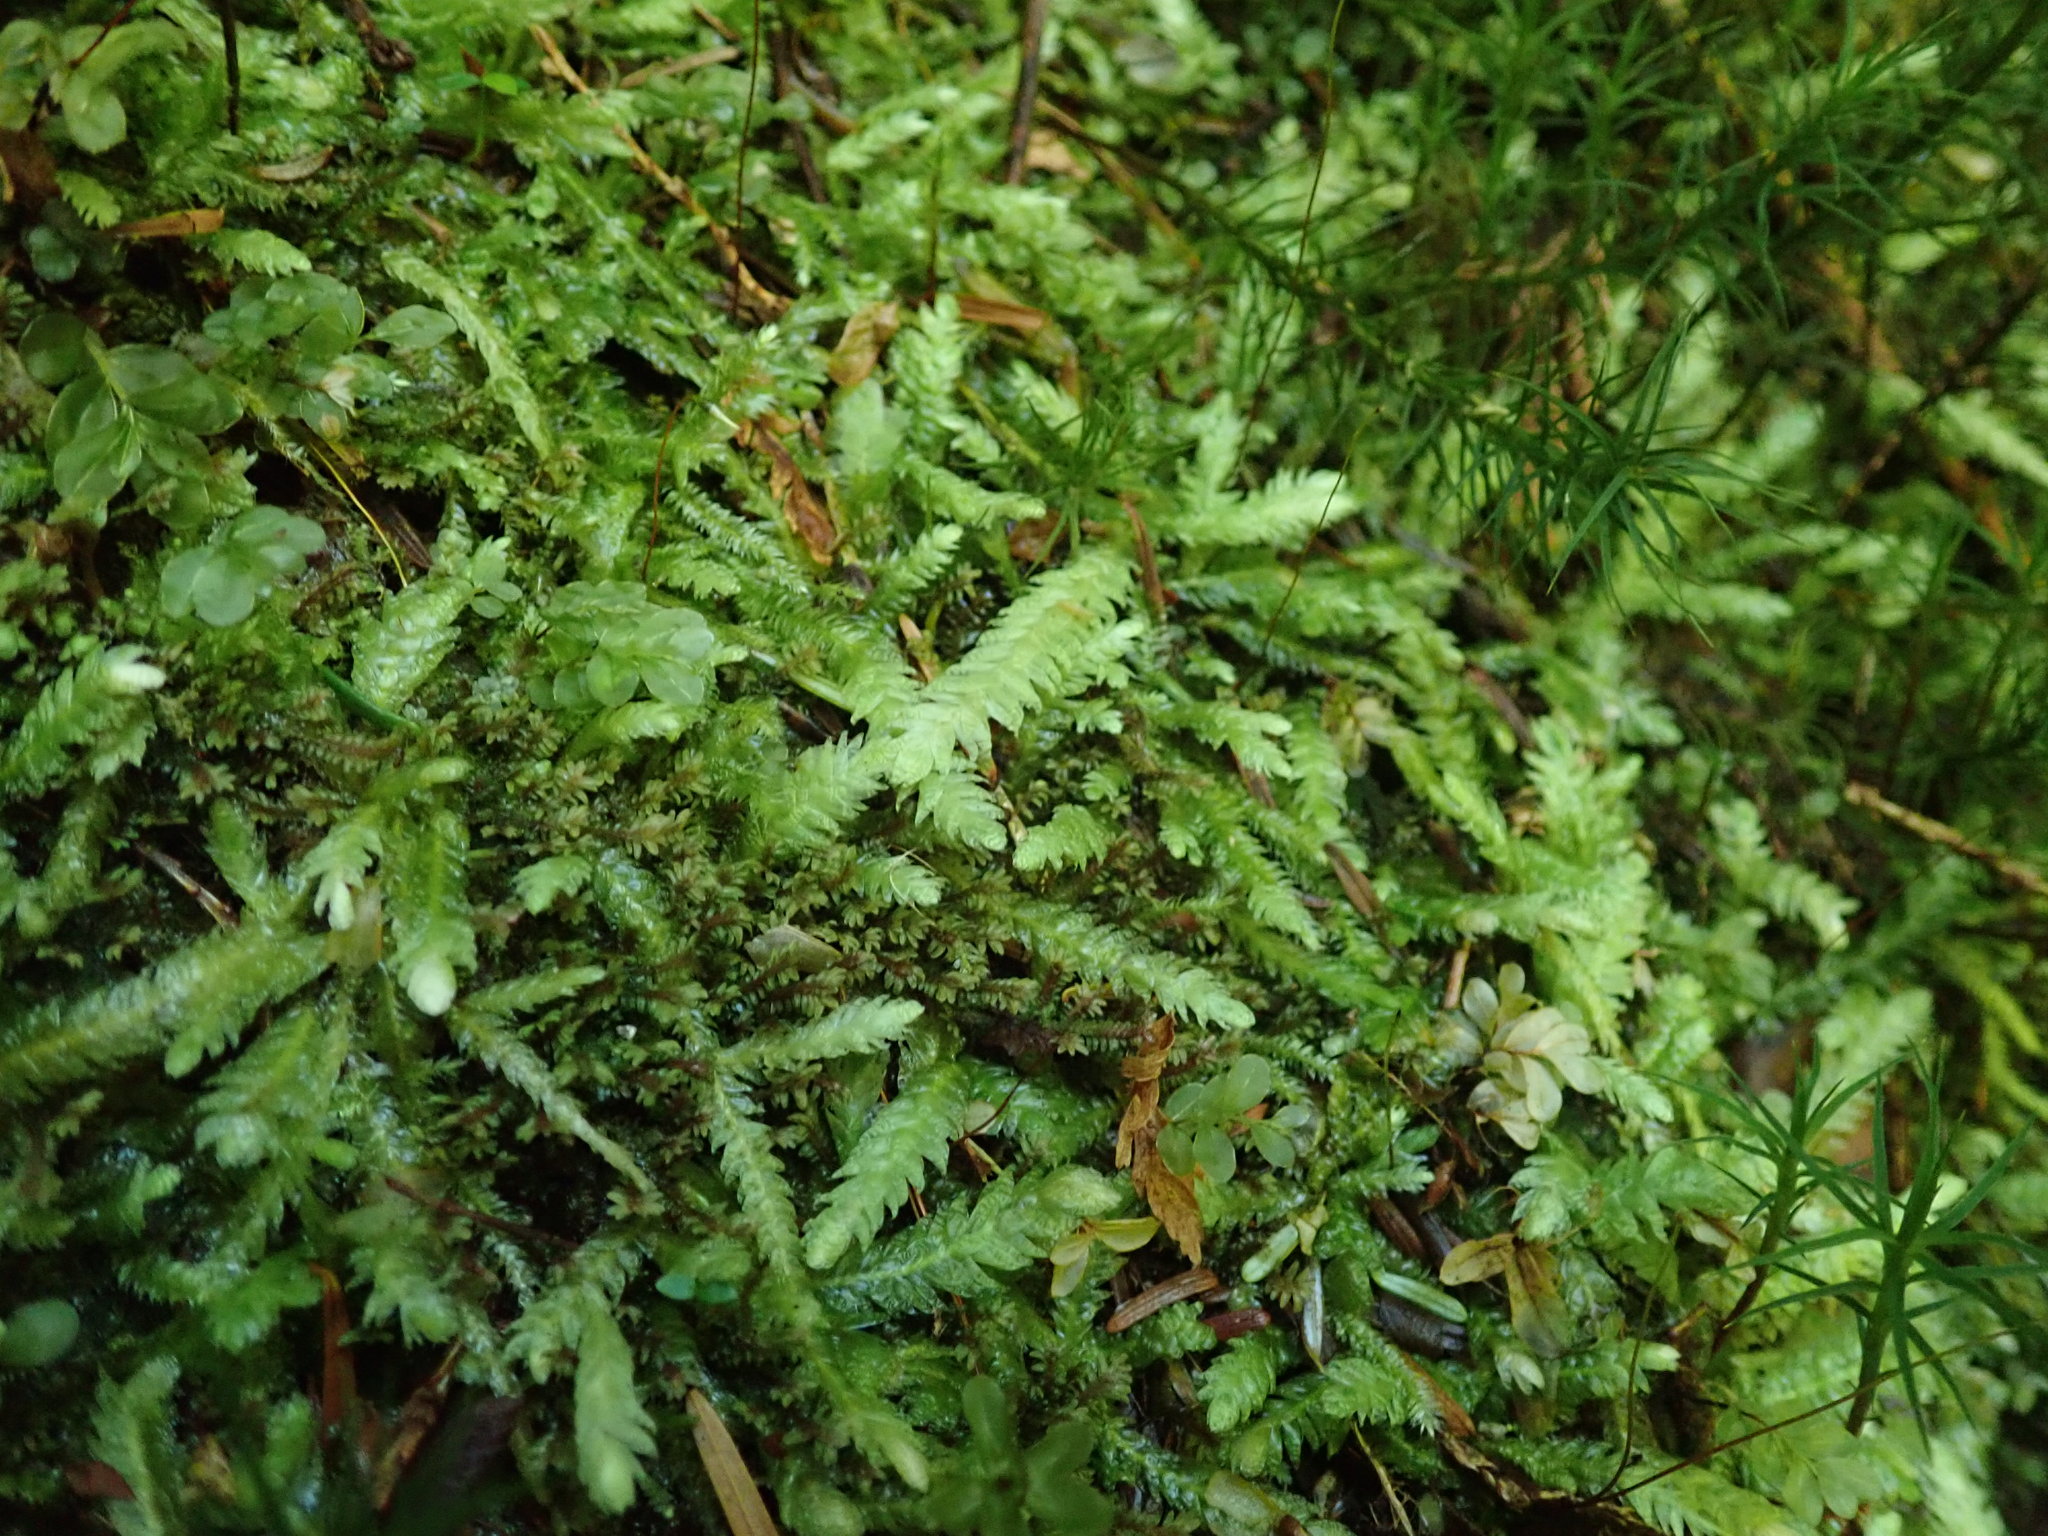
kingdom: Plantae
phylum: Bryophyta
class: Bryopsida
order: Hypnales
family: Plagiotheciaceae
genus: Plagiothecium
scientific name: Plagiothecium undulatum
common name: Waved silk-moss
